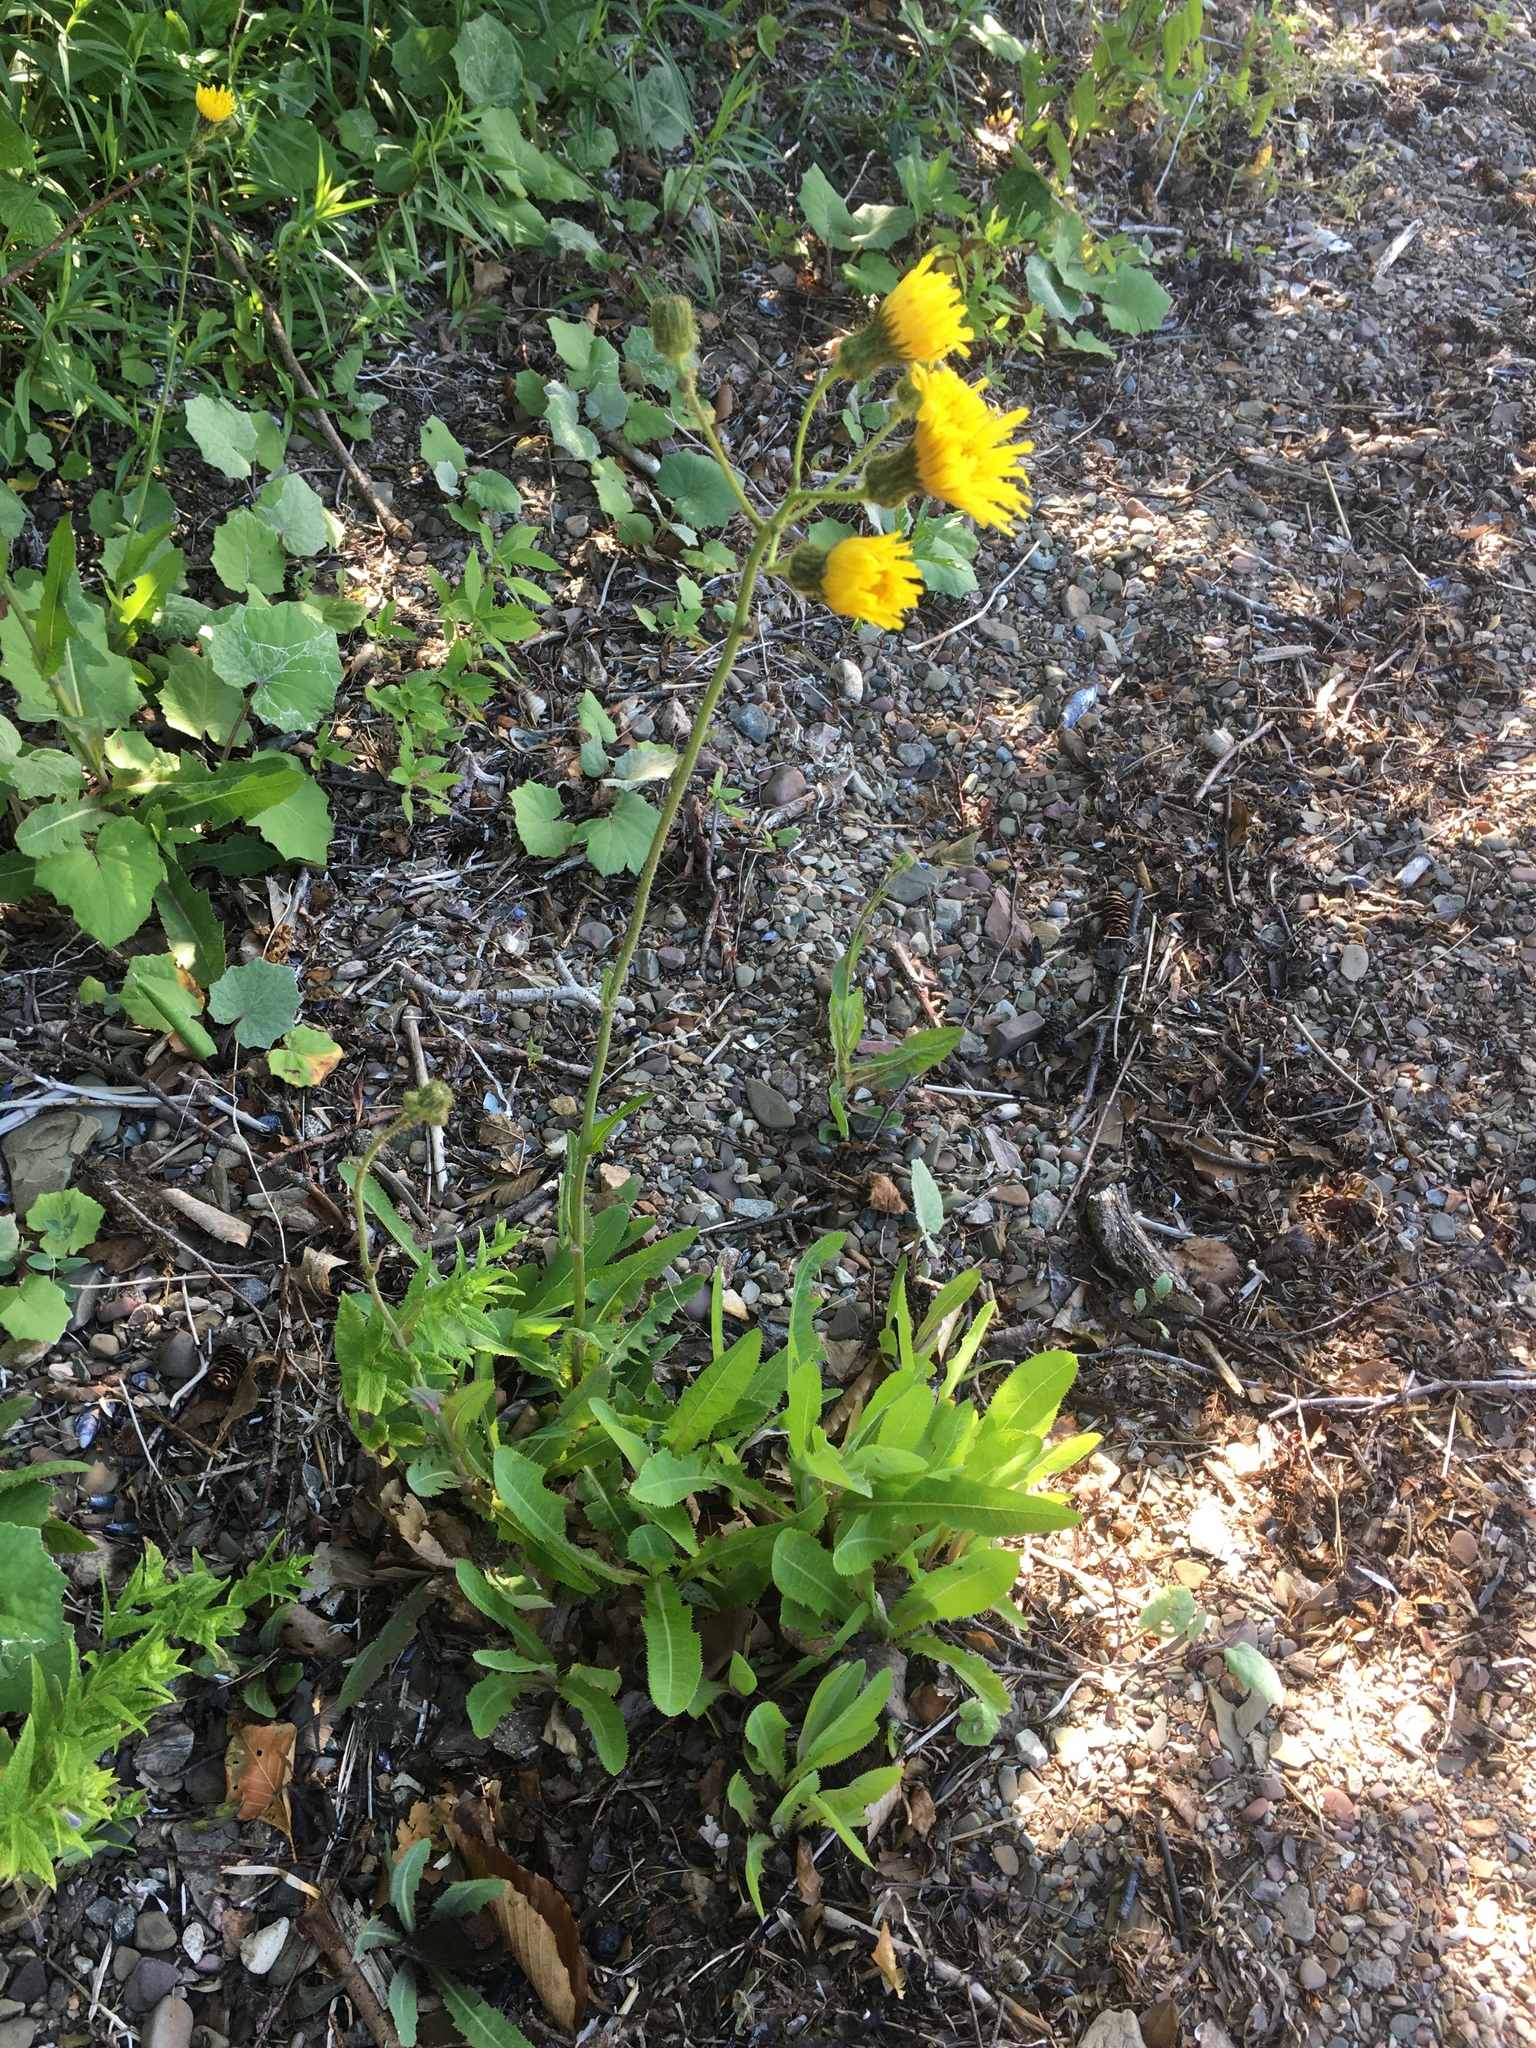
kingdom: Plantae
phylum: Tracheophyta
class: Magnoliopsida
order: Asterales
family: Asteraceae
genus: Sonchus
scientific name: Sonchus arvensis
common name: Perennial sow-thistle
